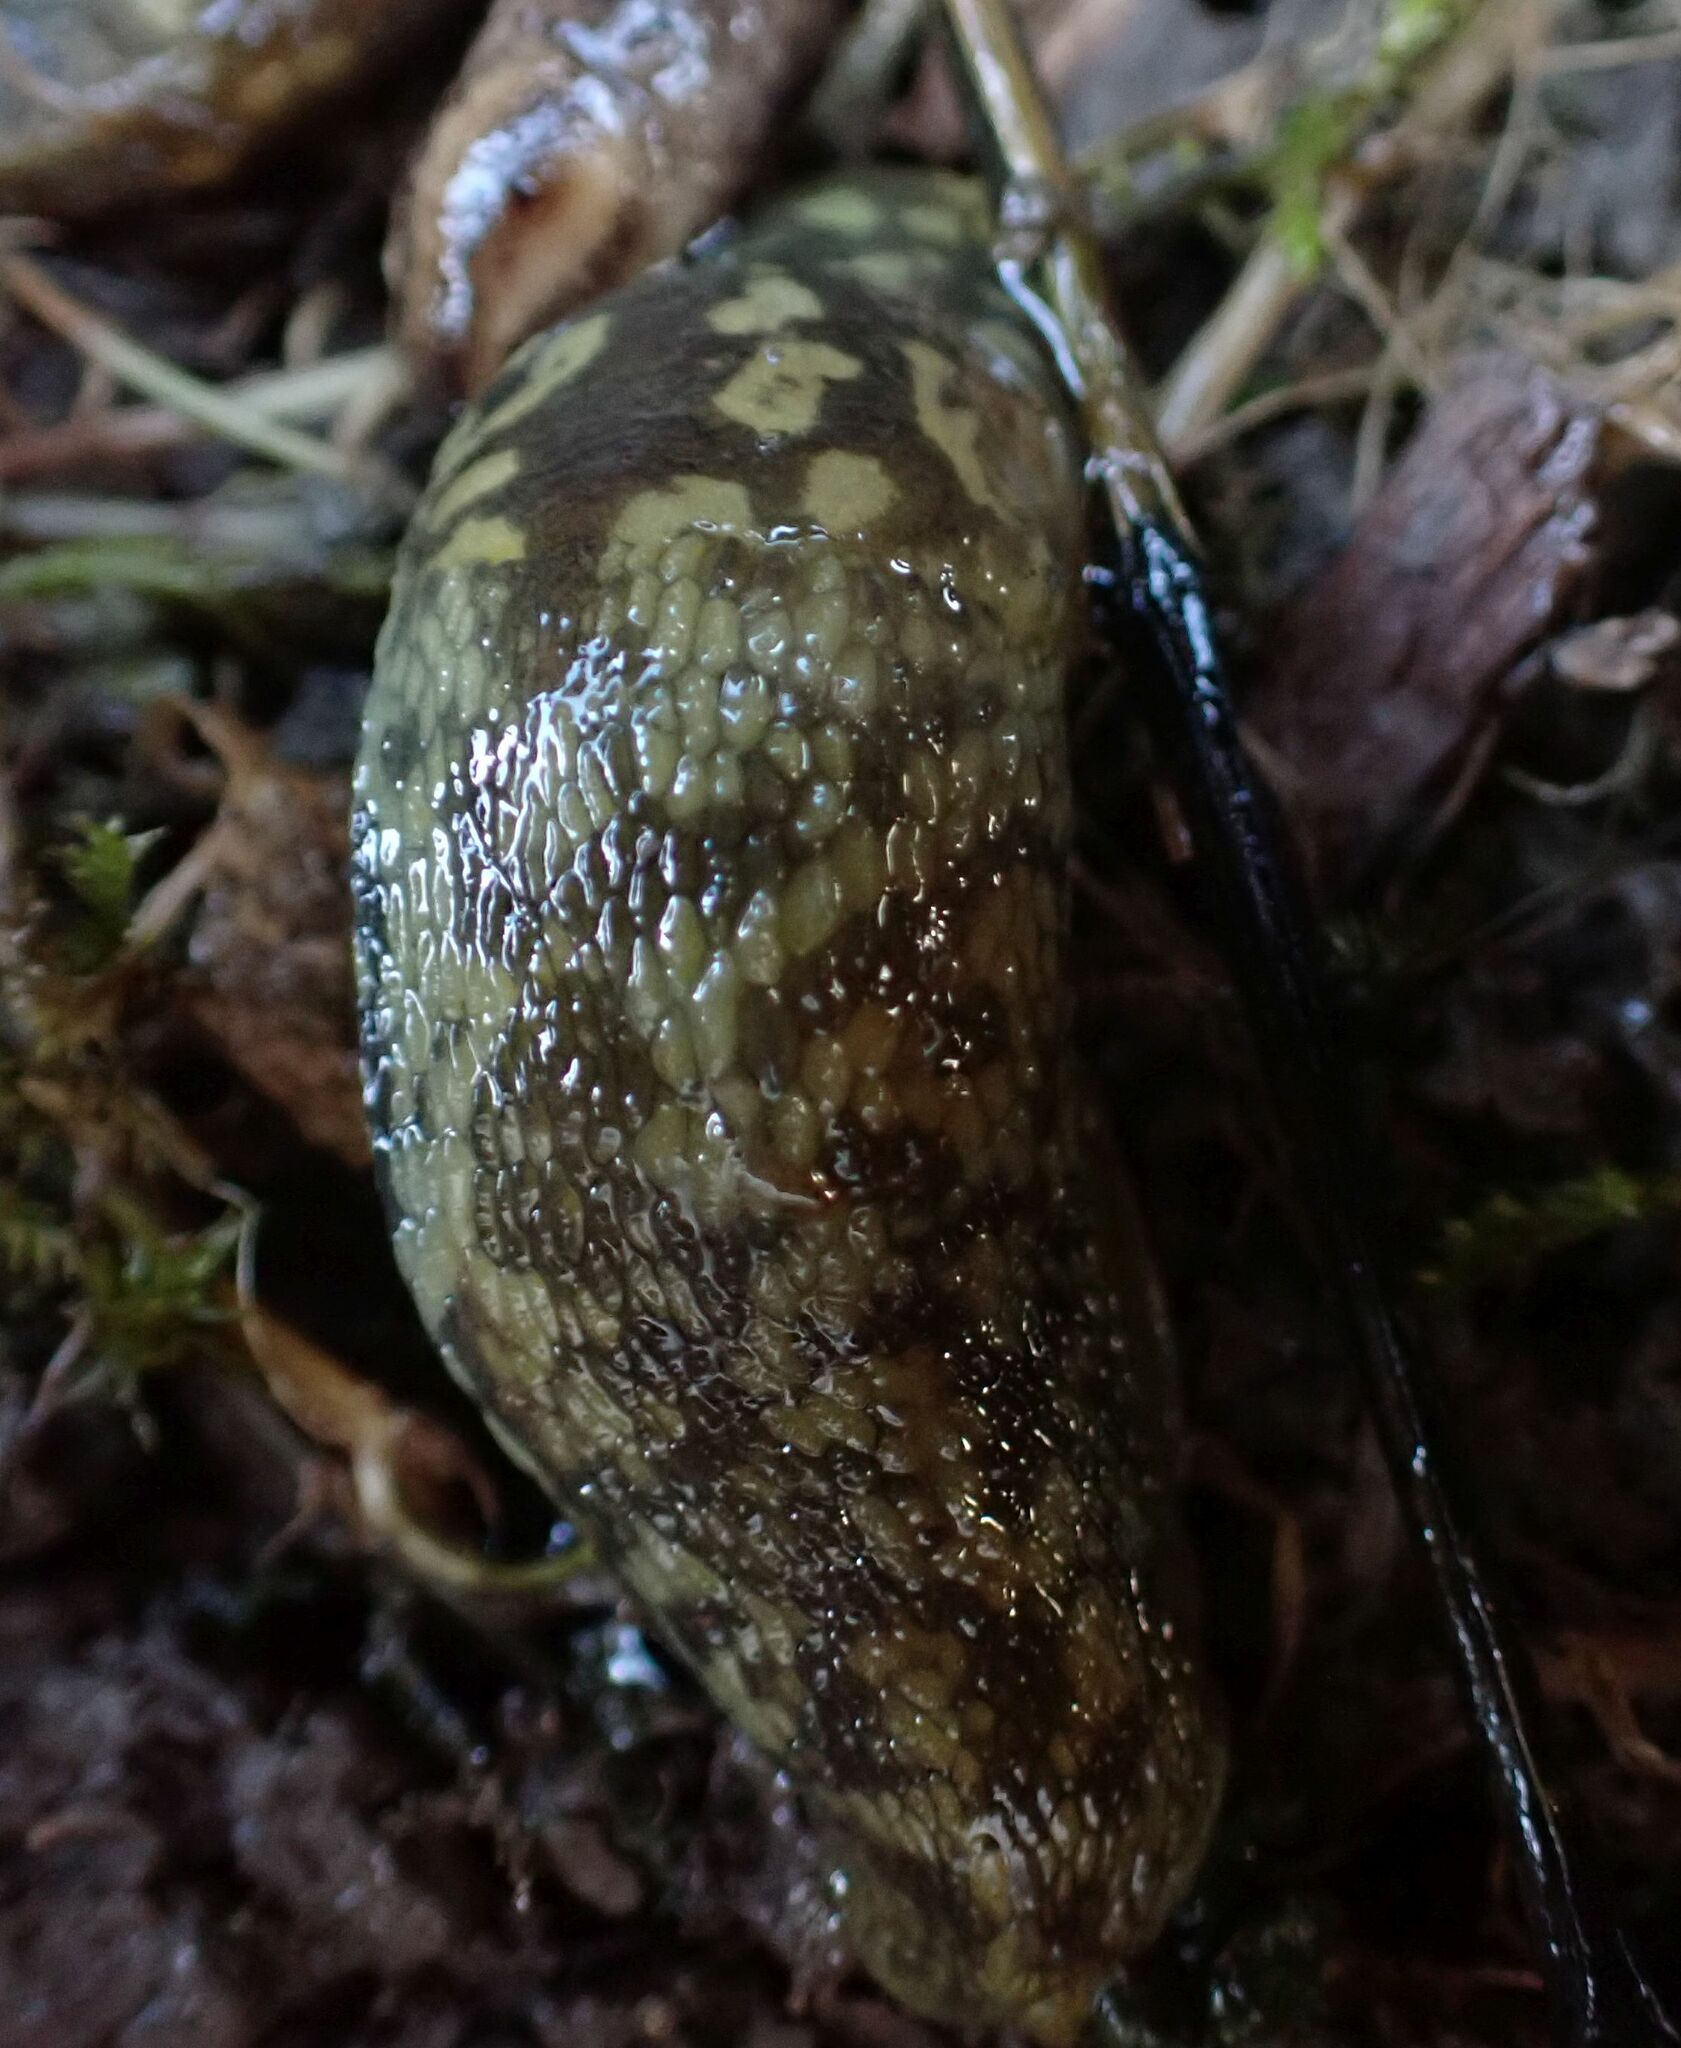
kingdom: Animalia
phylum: Mollusca
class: Gastropoda
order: Stylommatophora
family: Limacidae
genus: Limacus
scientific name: Limacus maculatus
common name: Irish yellow slug
